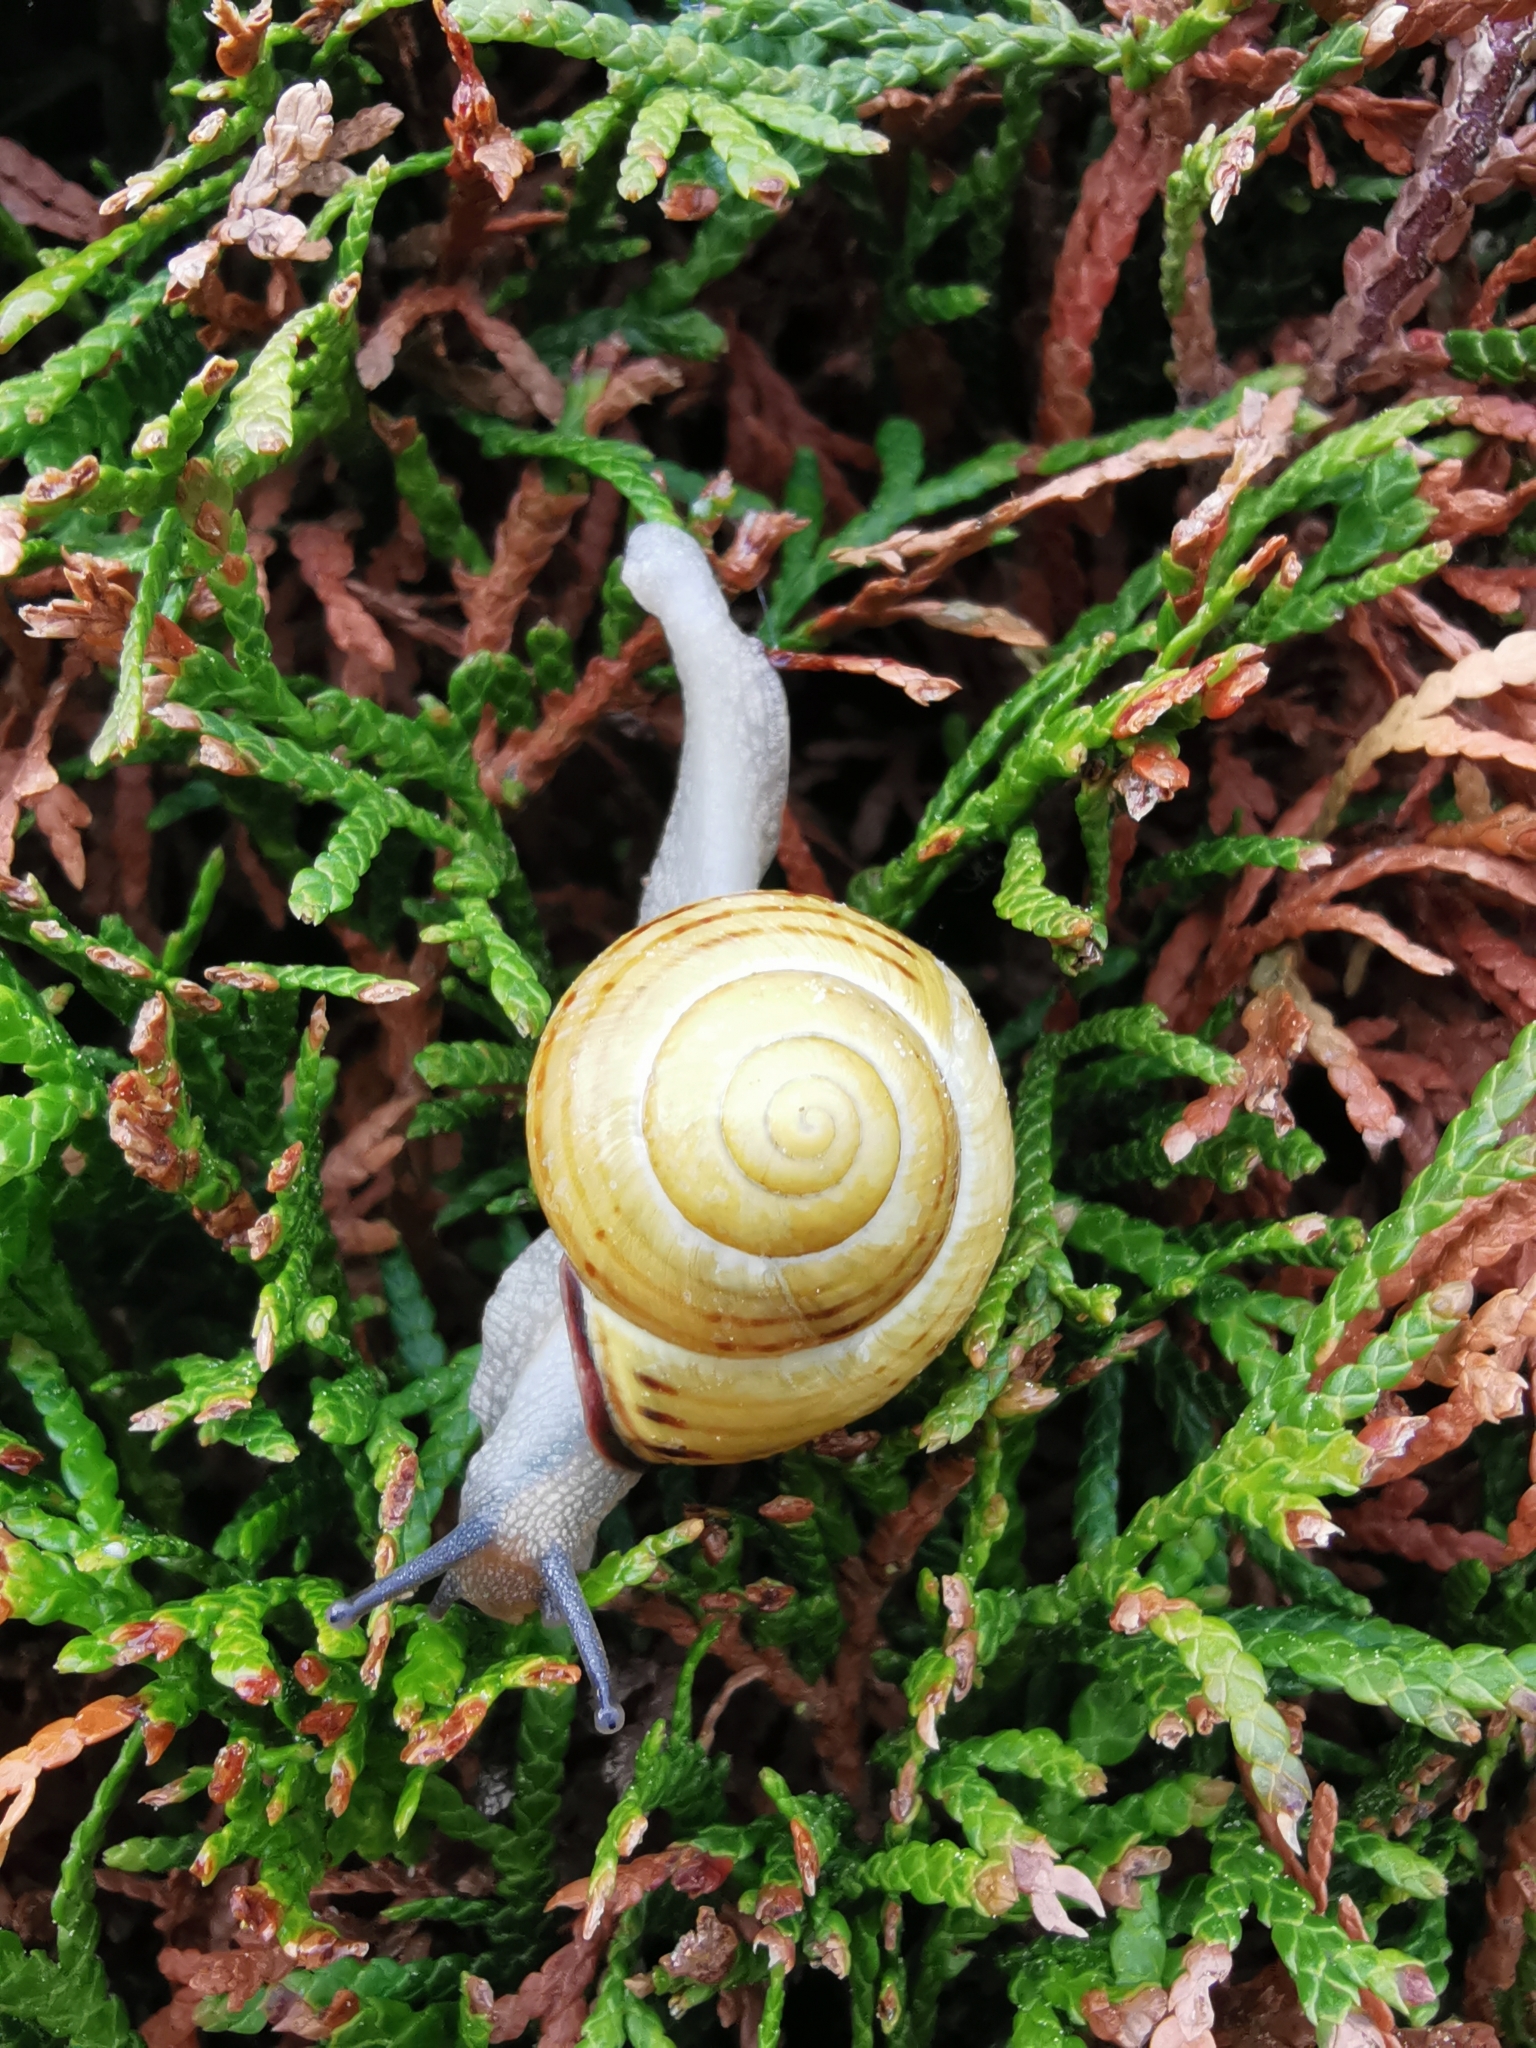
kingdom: Animalia
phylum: Mollusca
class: Gastropoda
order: Stylommatophora
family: Helicidae
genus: Cepaea
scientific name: Cepaea nemoralis
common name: Grovesnail
